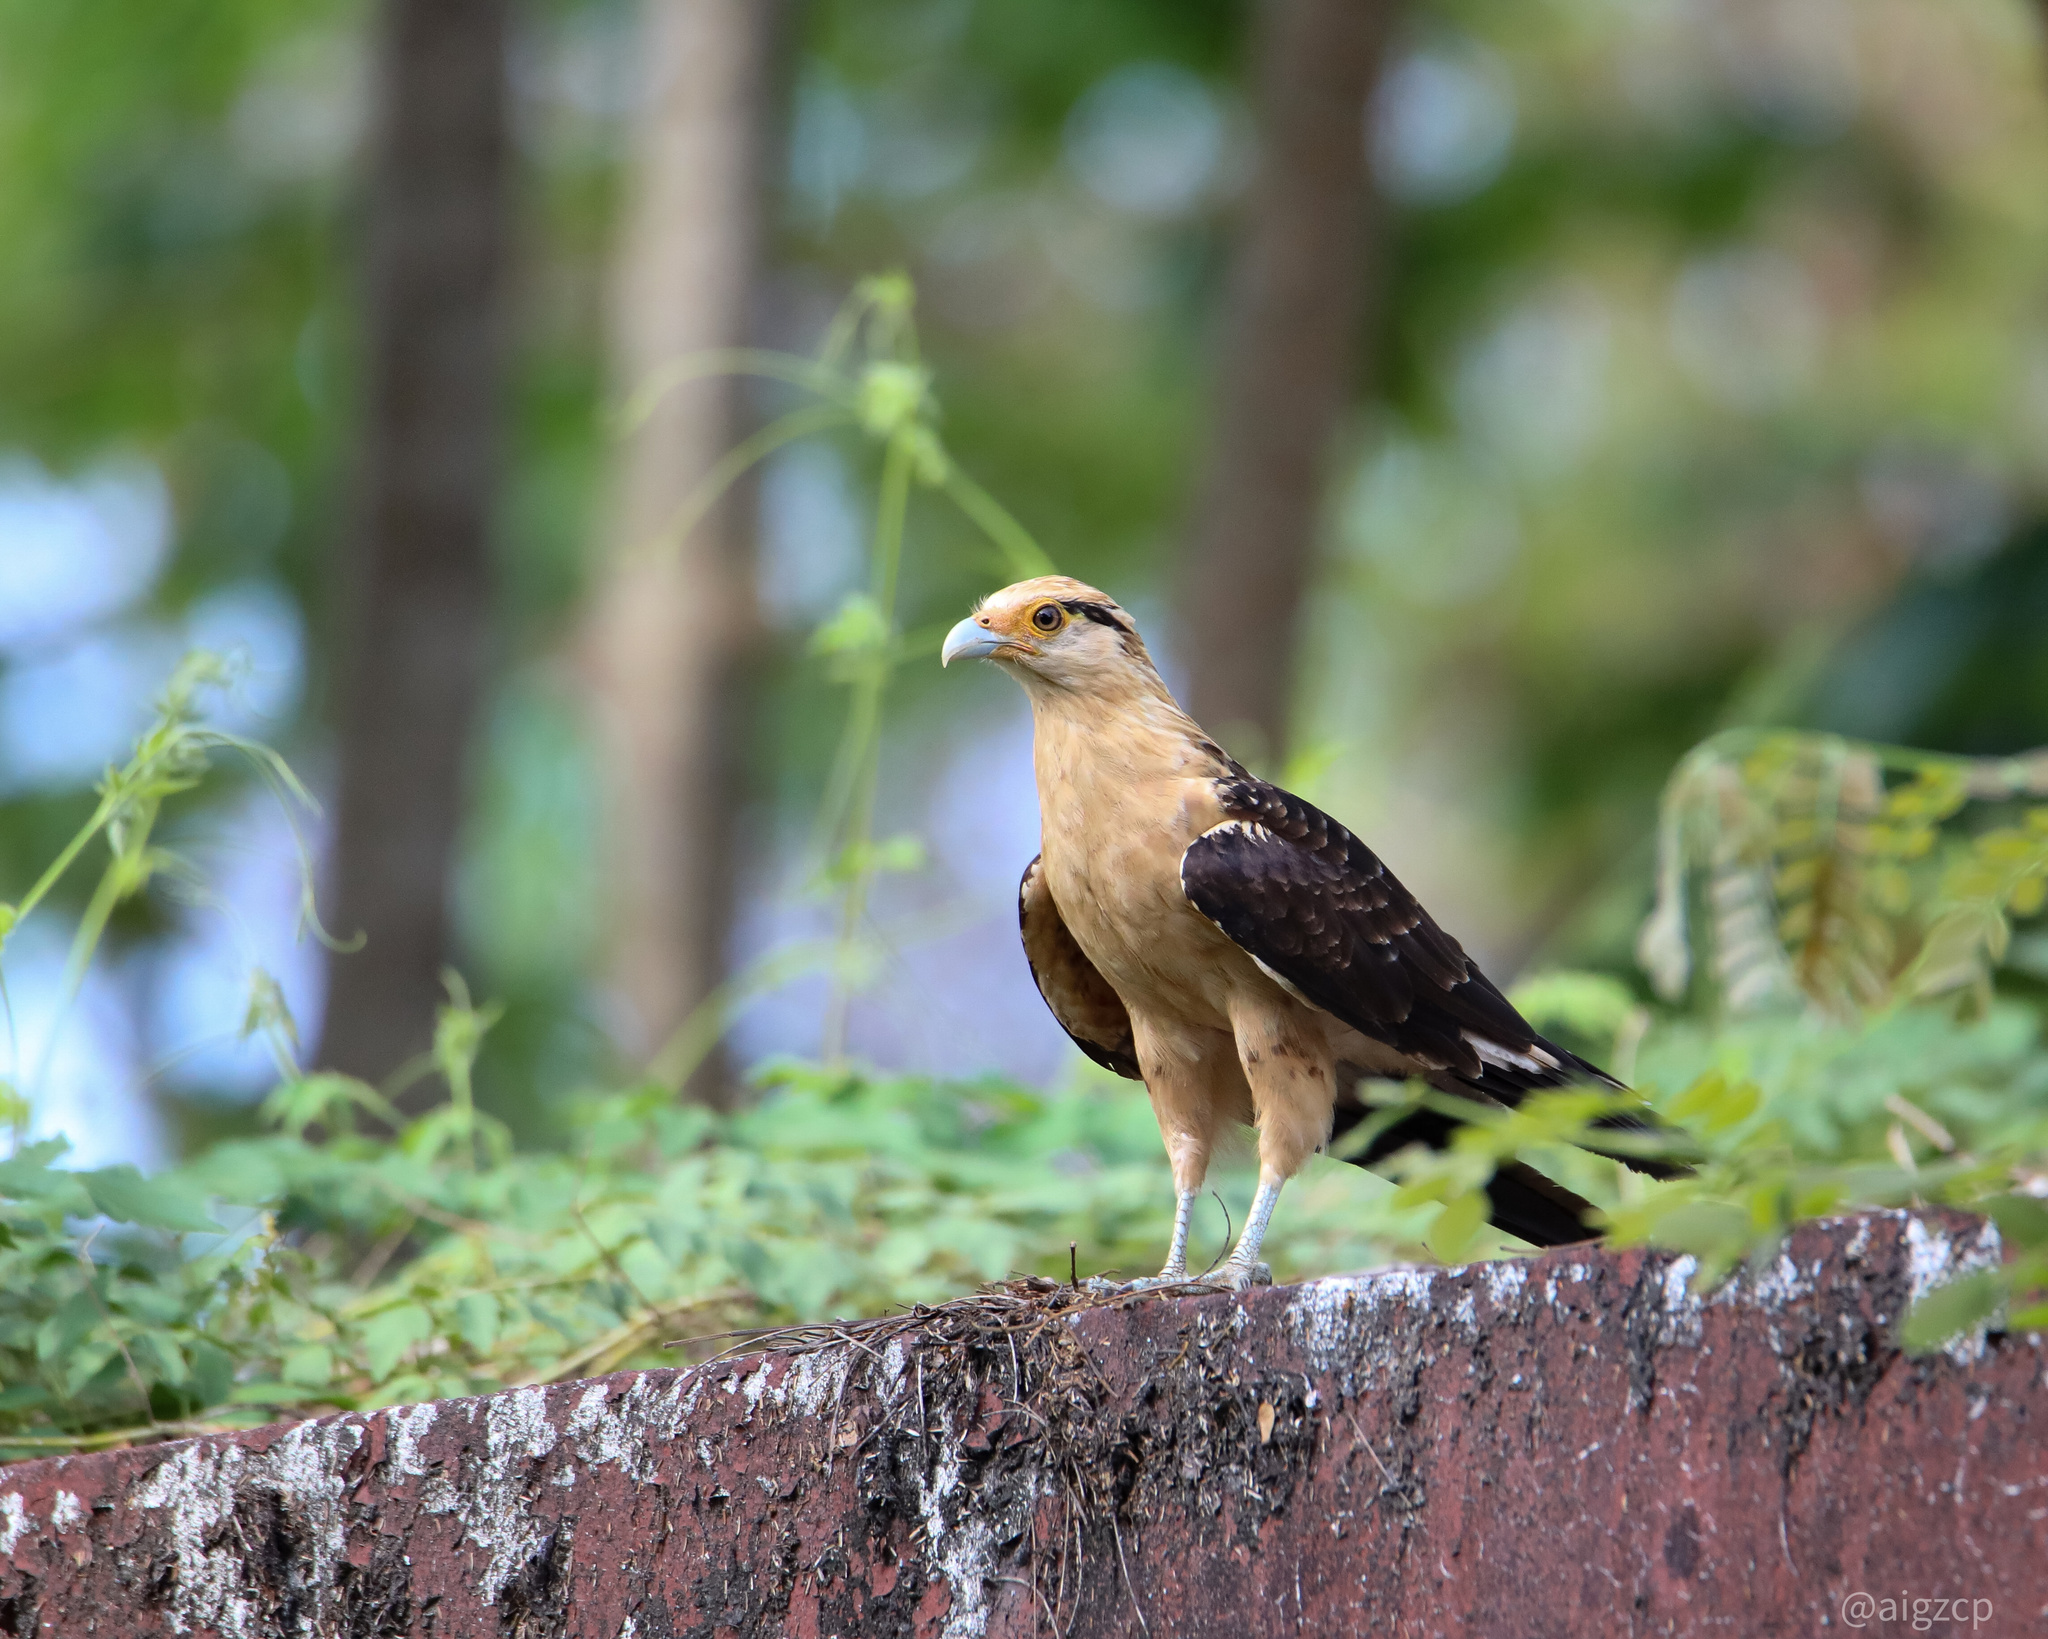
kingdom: Animalia
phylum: Chordata
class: Aves
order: Falconiformes
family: Falconidae
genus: Daptrius
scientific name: Daptrius
